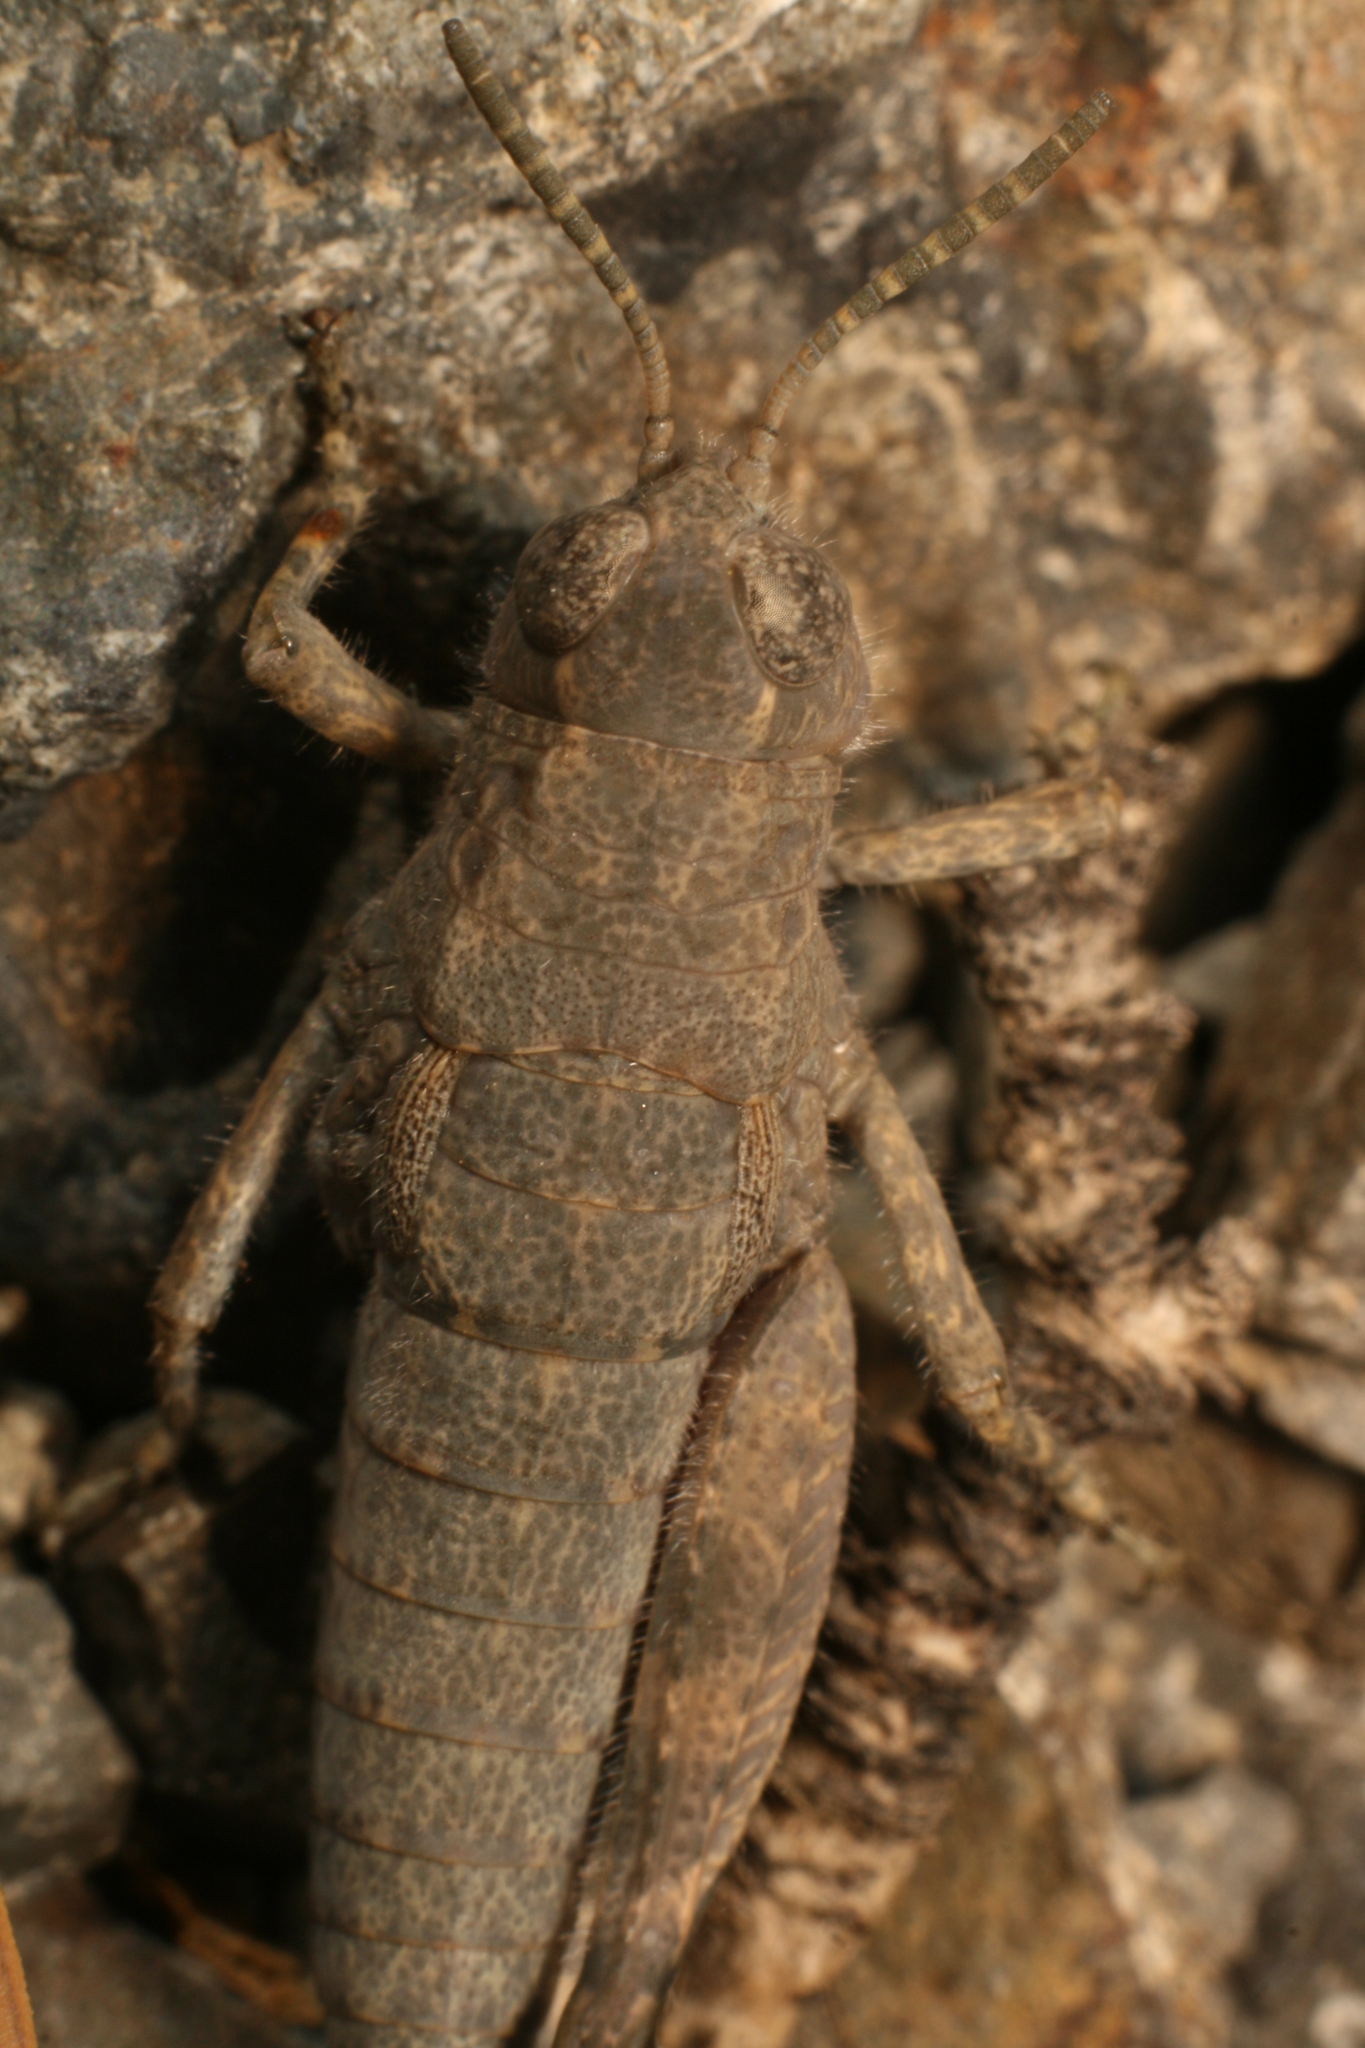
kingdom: Animalia
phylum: Arthropoda
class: Insecta
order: Orthoptera
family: Acrididae
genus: Sigaus
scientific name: Sigaus
